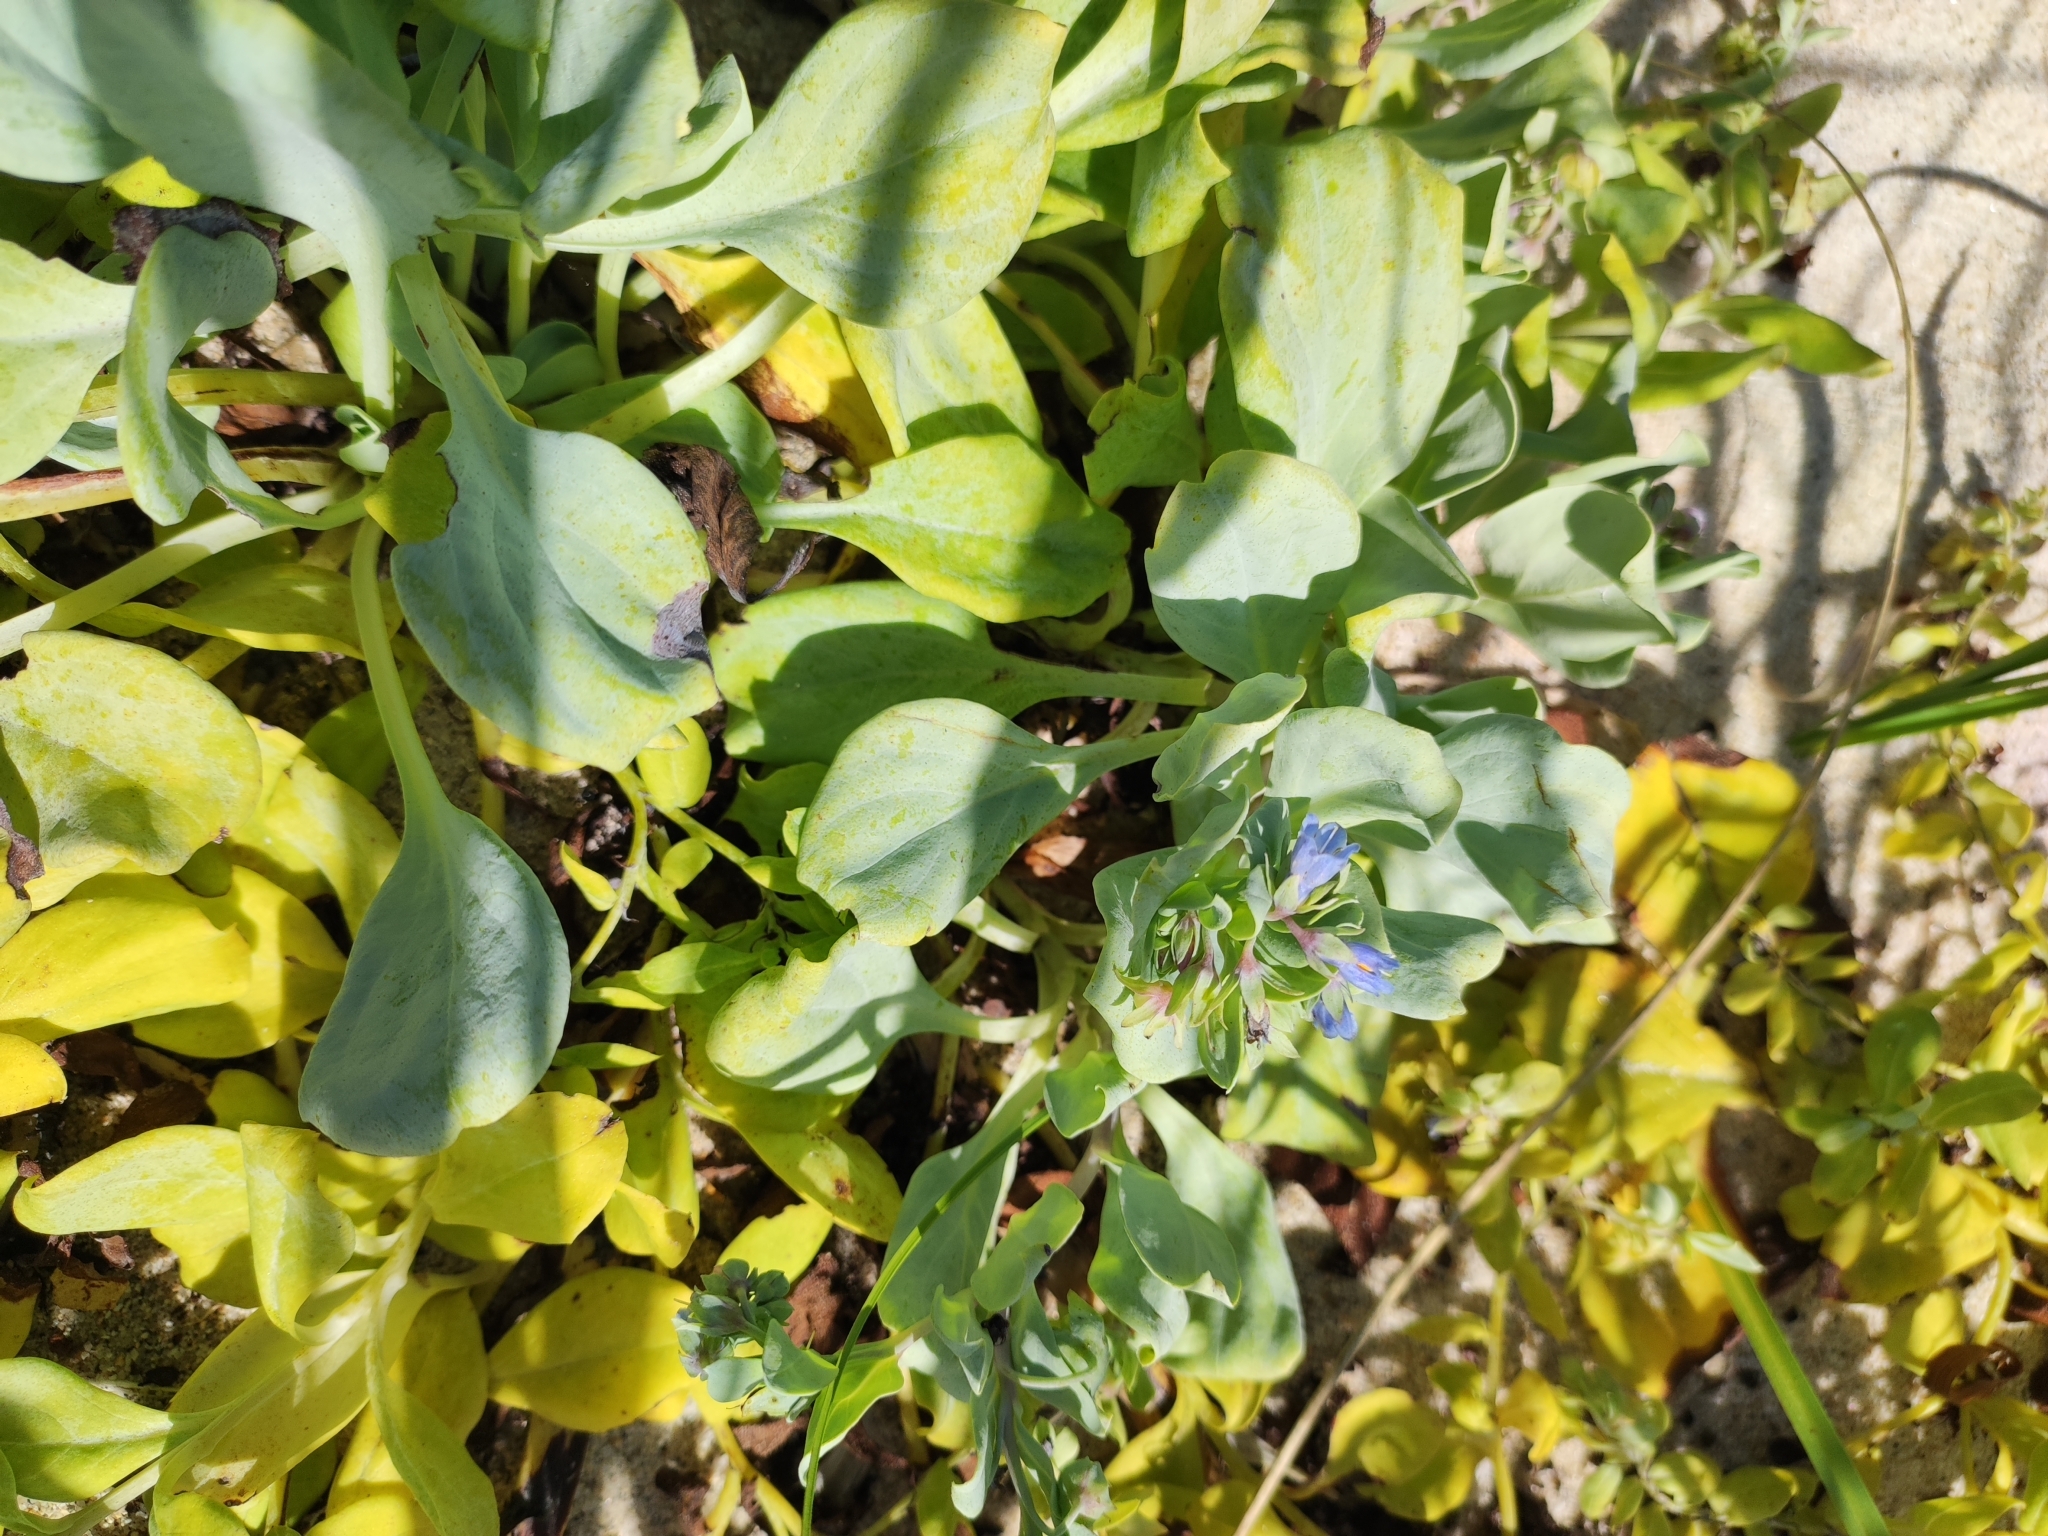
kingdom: Plantae
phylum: Tracheophyta
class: Magnoliopsida
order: Boraginales
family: Boraginaceae
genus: Mertensia
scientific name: Mertensia simplicissima
